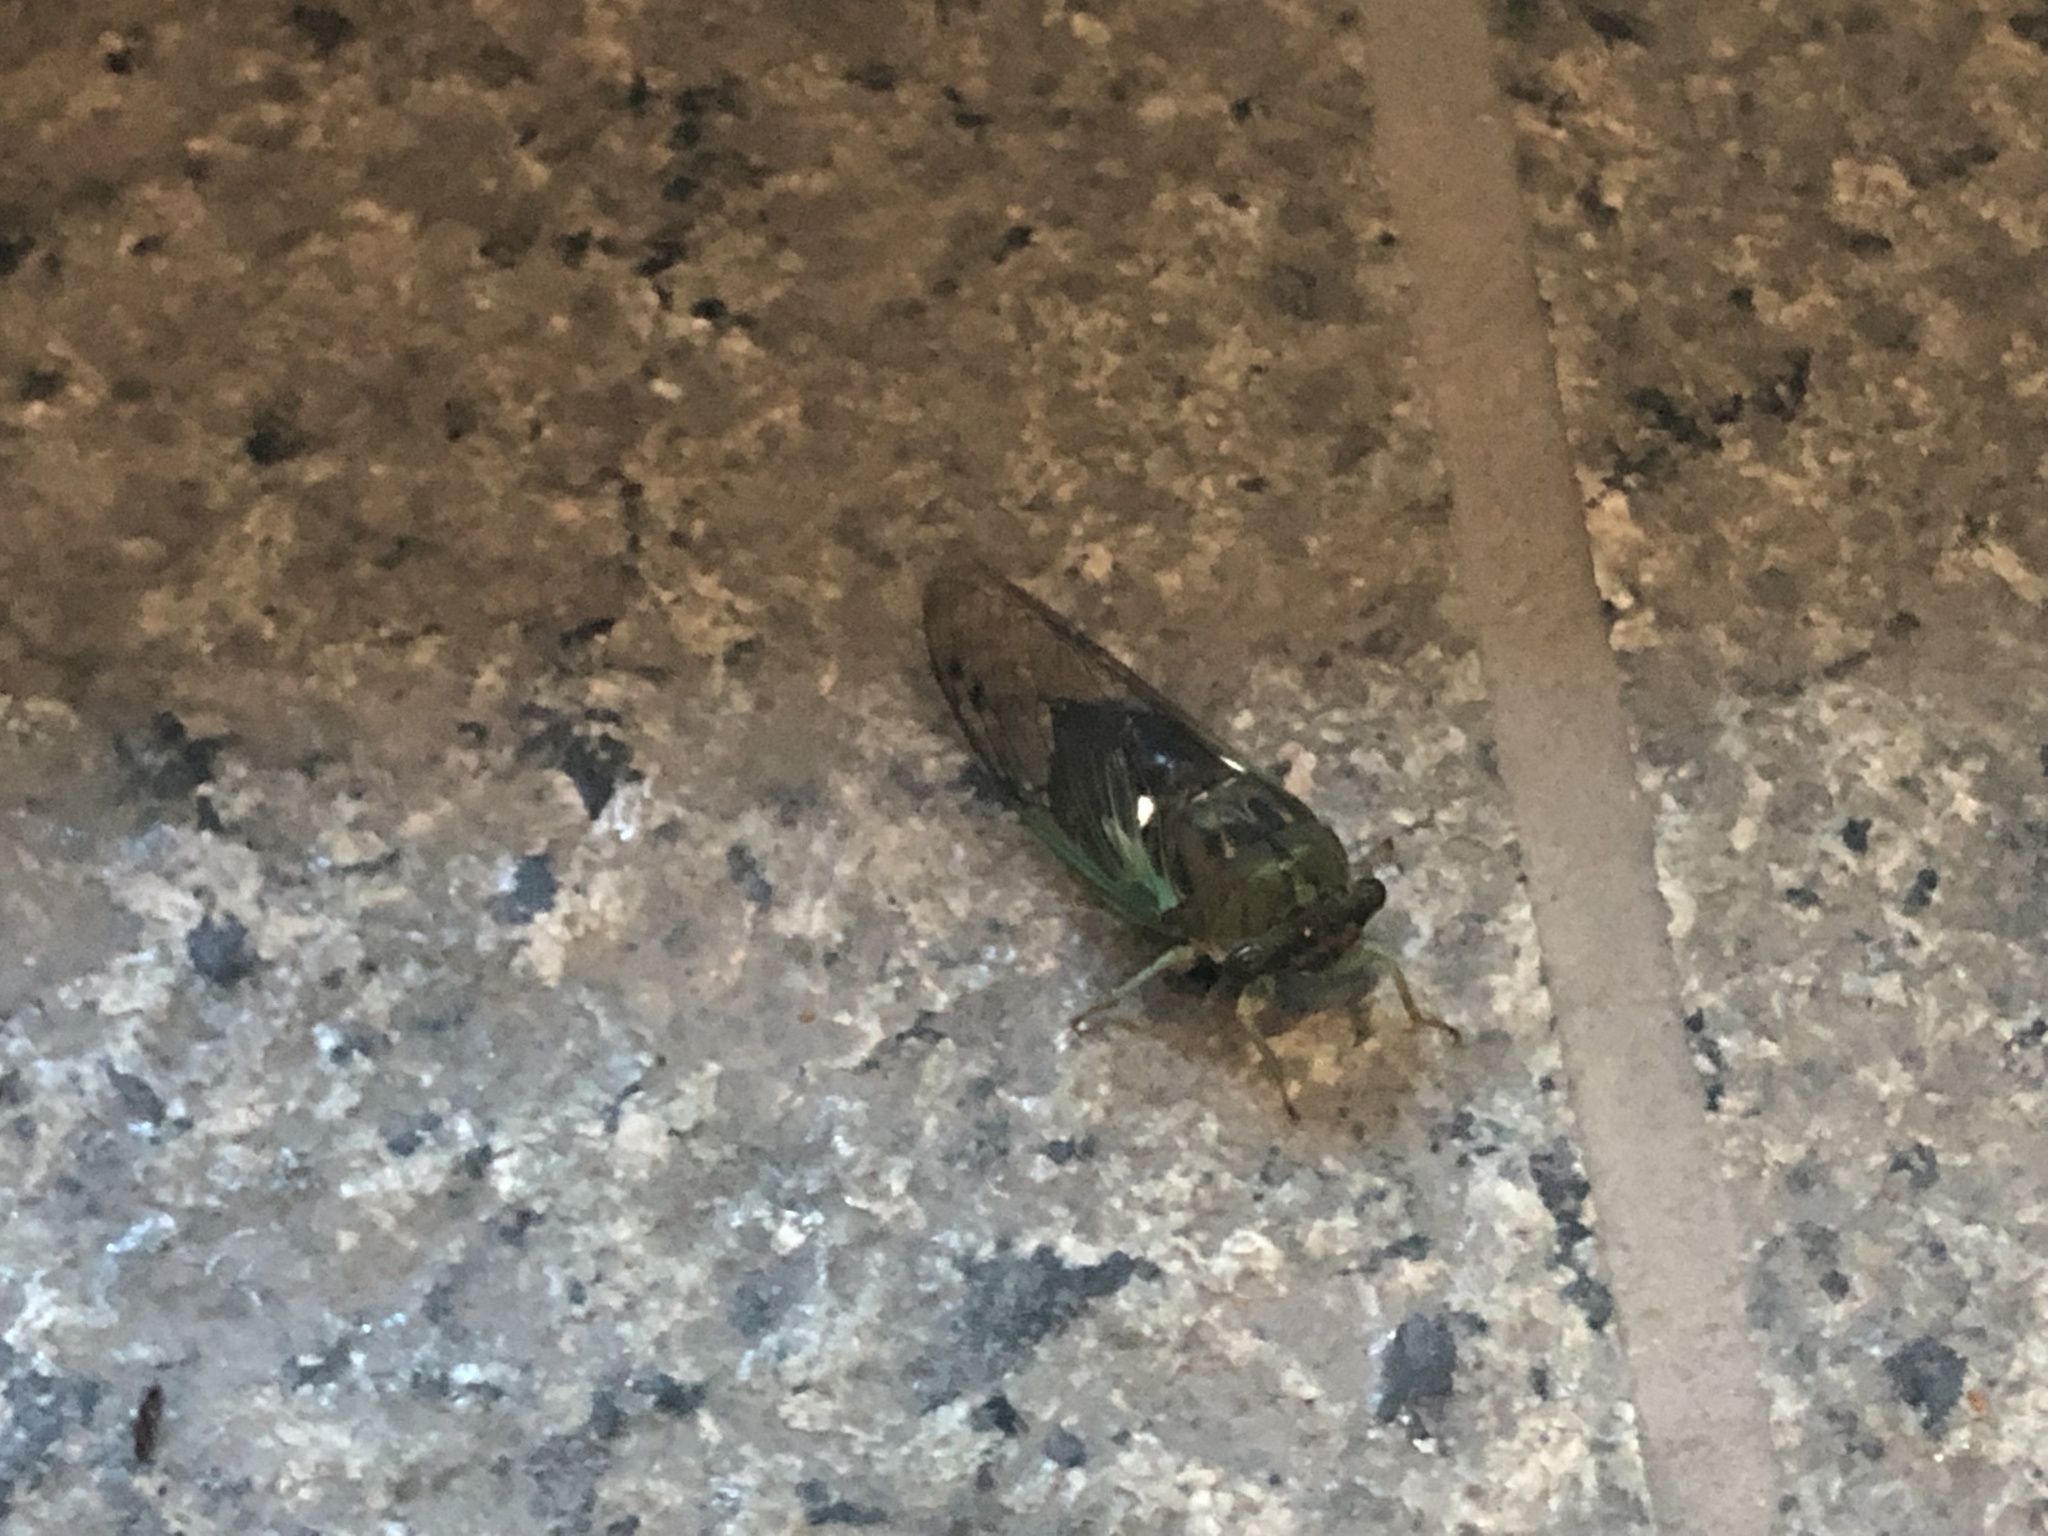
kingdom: Animalia
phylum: Arthropoda
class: Insecta
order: Hemiptera
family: Cicadidae
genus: Neotibicen
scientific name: Neotibicen tibicen
